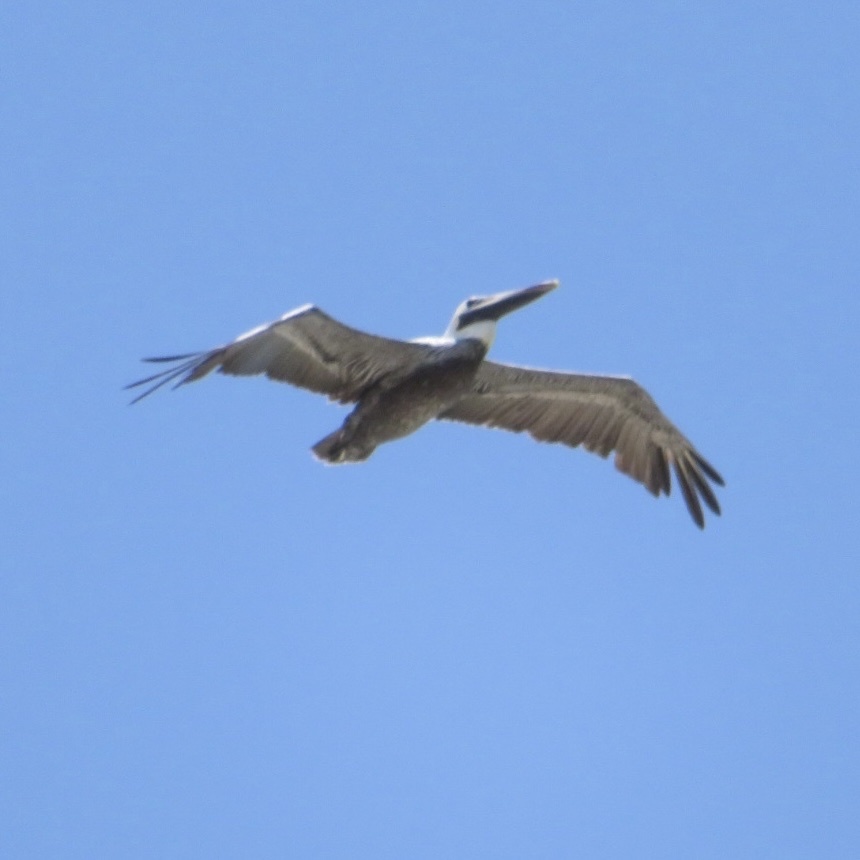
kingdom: Animalia
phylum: Chordata
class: Aves
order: Pelecaniformes
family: Pelecanidae
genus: Pelecanus
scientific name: Pelecanus occidentalis
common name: Brown pelican
